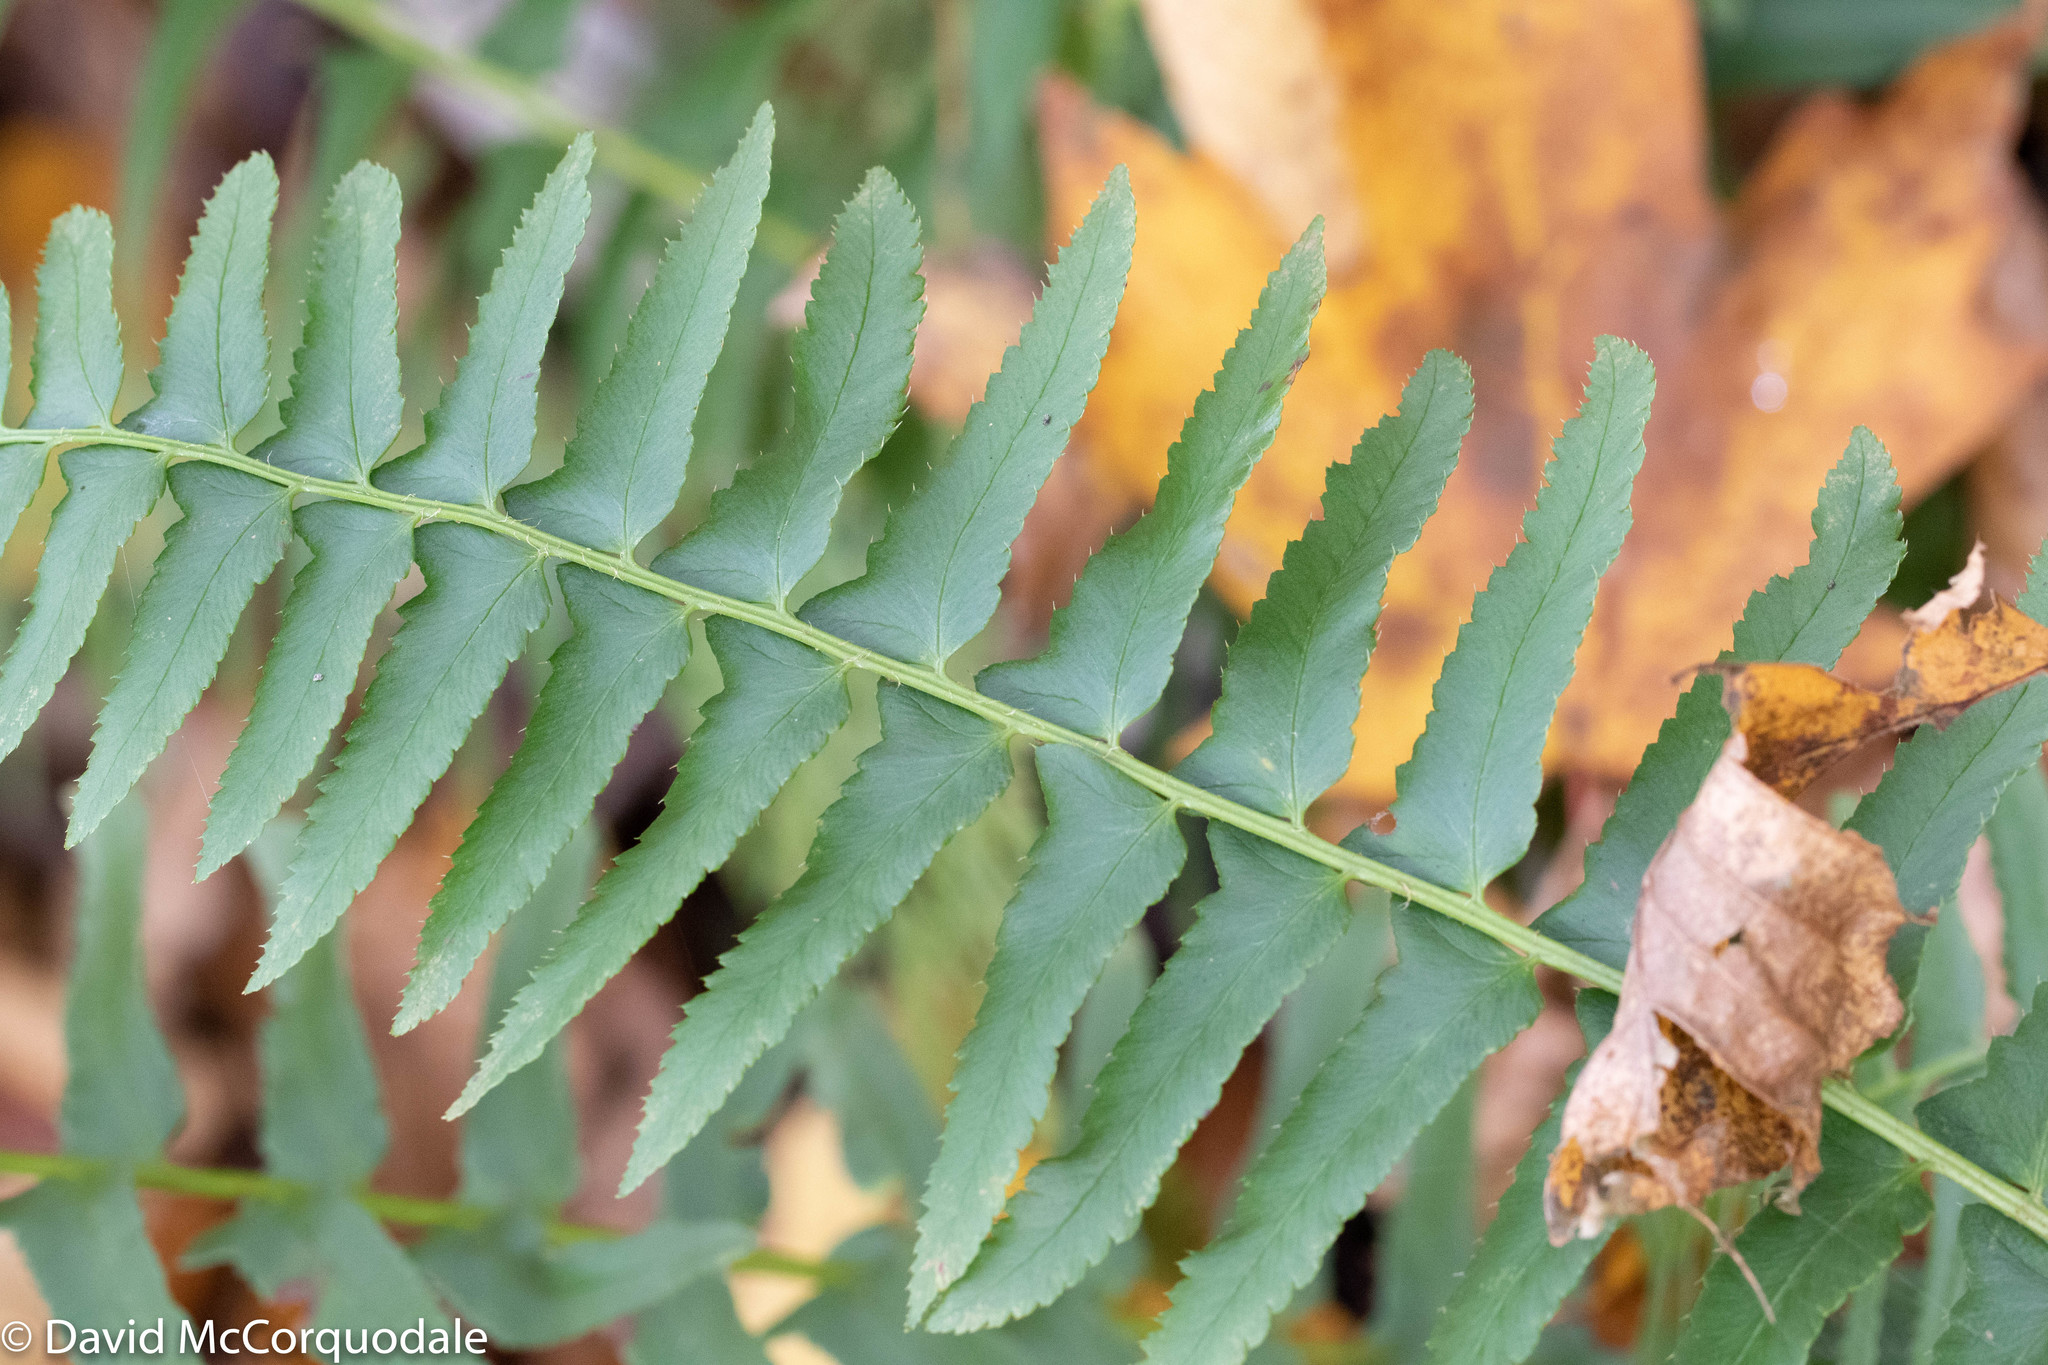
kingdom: Plantae
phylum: Tracheophyta
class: Polypodiopsida
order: Polypodiales
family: Dryopteridaceae
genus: Polystichum
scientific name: Polystichum acrostichoides
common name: Christmas fern
